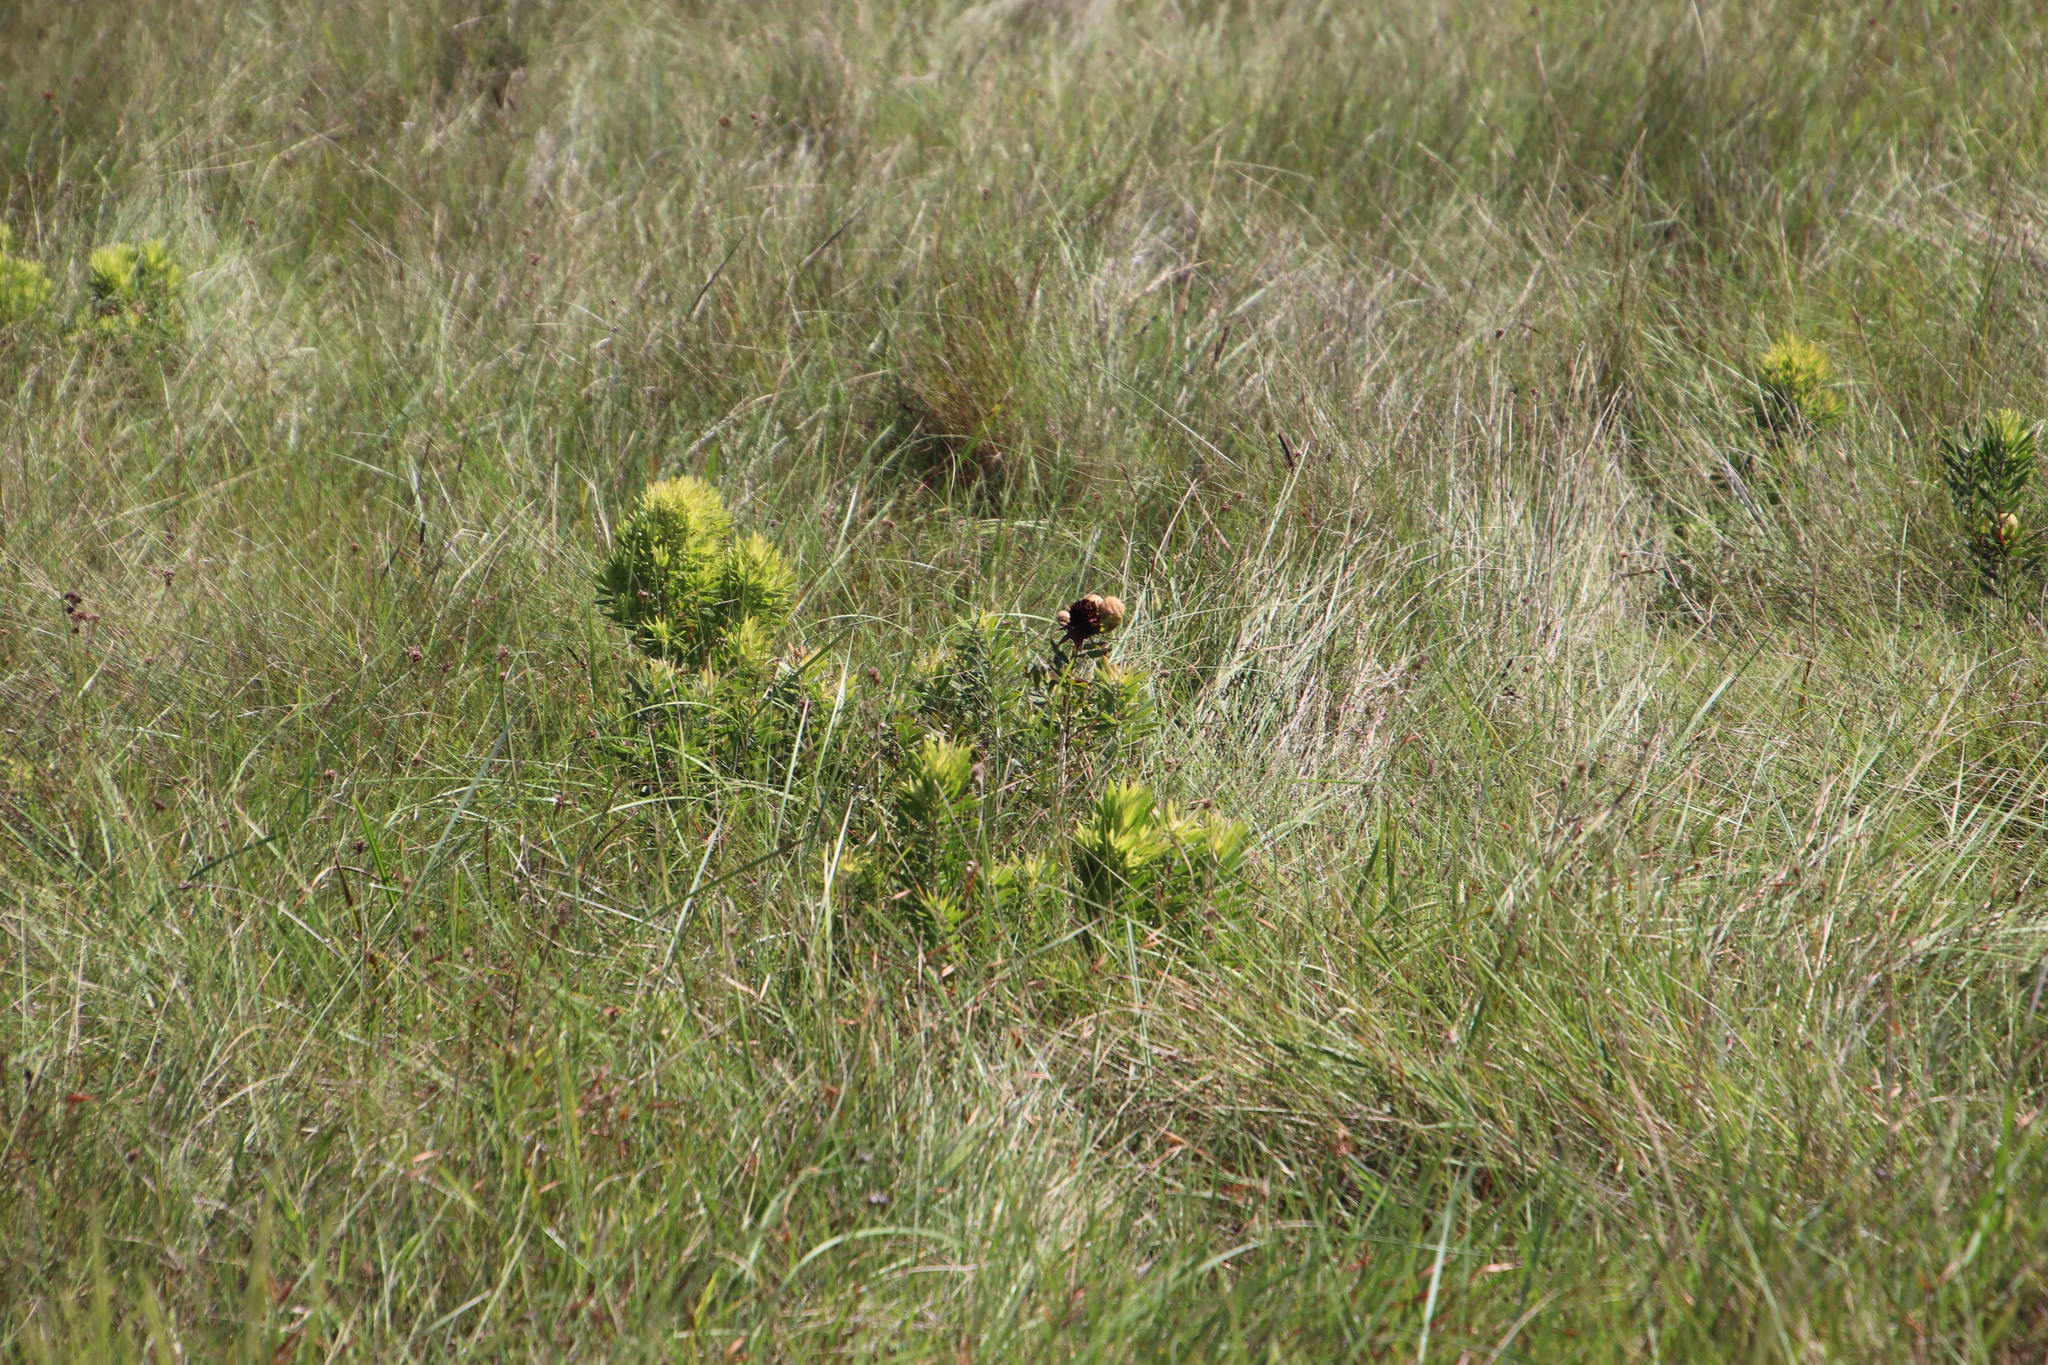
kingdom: Plantae
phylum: Tracheophyta
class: Magnoliopsida
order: Proteales
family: Proteaceae
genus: Leucadendron
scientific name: Leucadendron spissifolium
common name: Spear-leaf conebush
